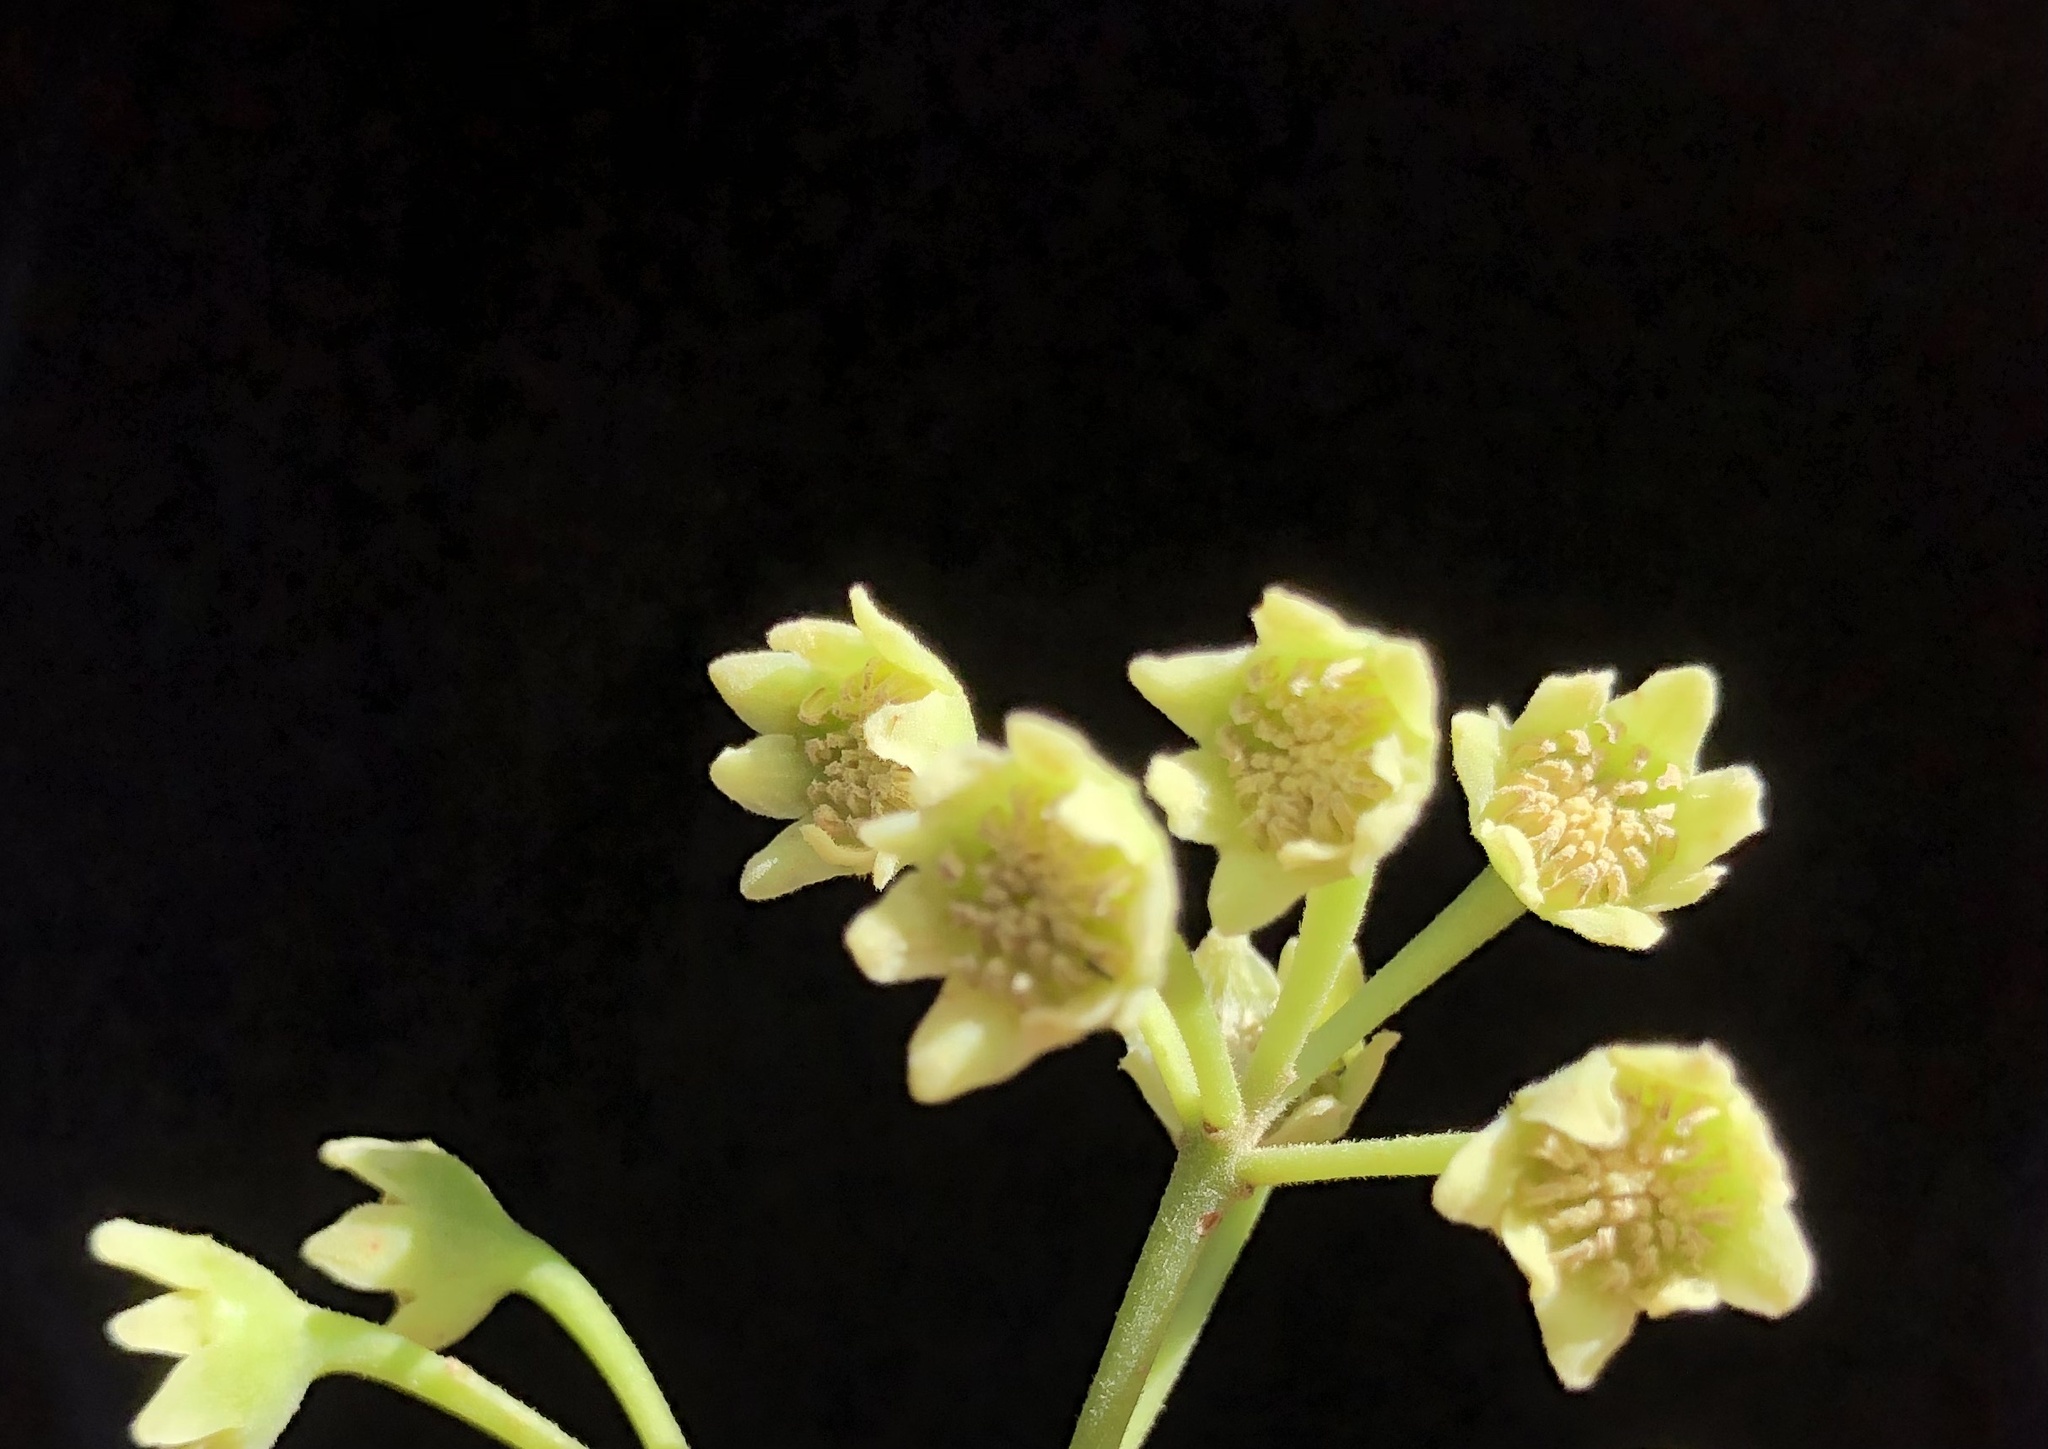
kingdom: Plantae
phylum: Tracheophyta
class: Magnoliopsida
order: Laurales
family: Monimiaceae
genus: Hedycarya
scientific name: Hedycarya arborea
